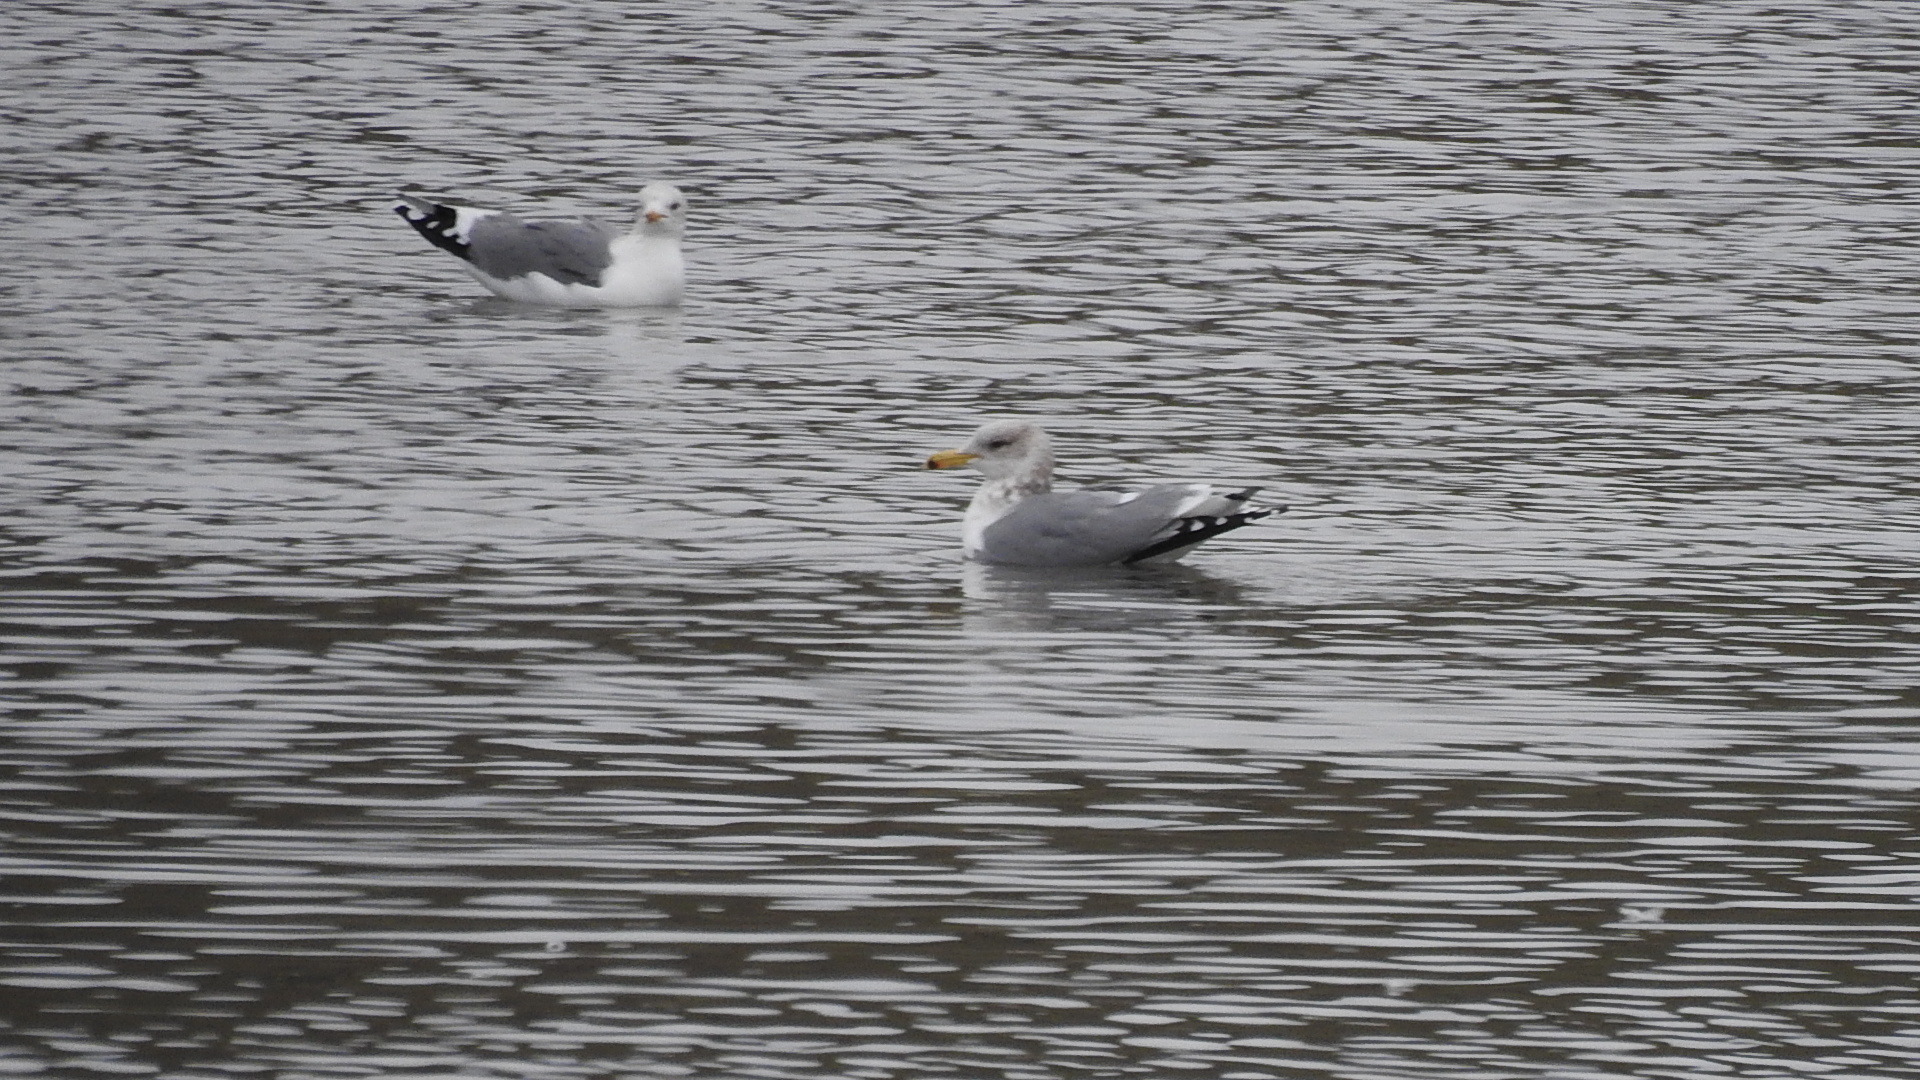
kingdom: Animalia
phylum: Chordata
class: Aves
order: Charadriiformes
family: Laridae
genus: Larus
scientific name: Larus californicus
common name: California gull
